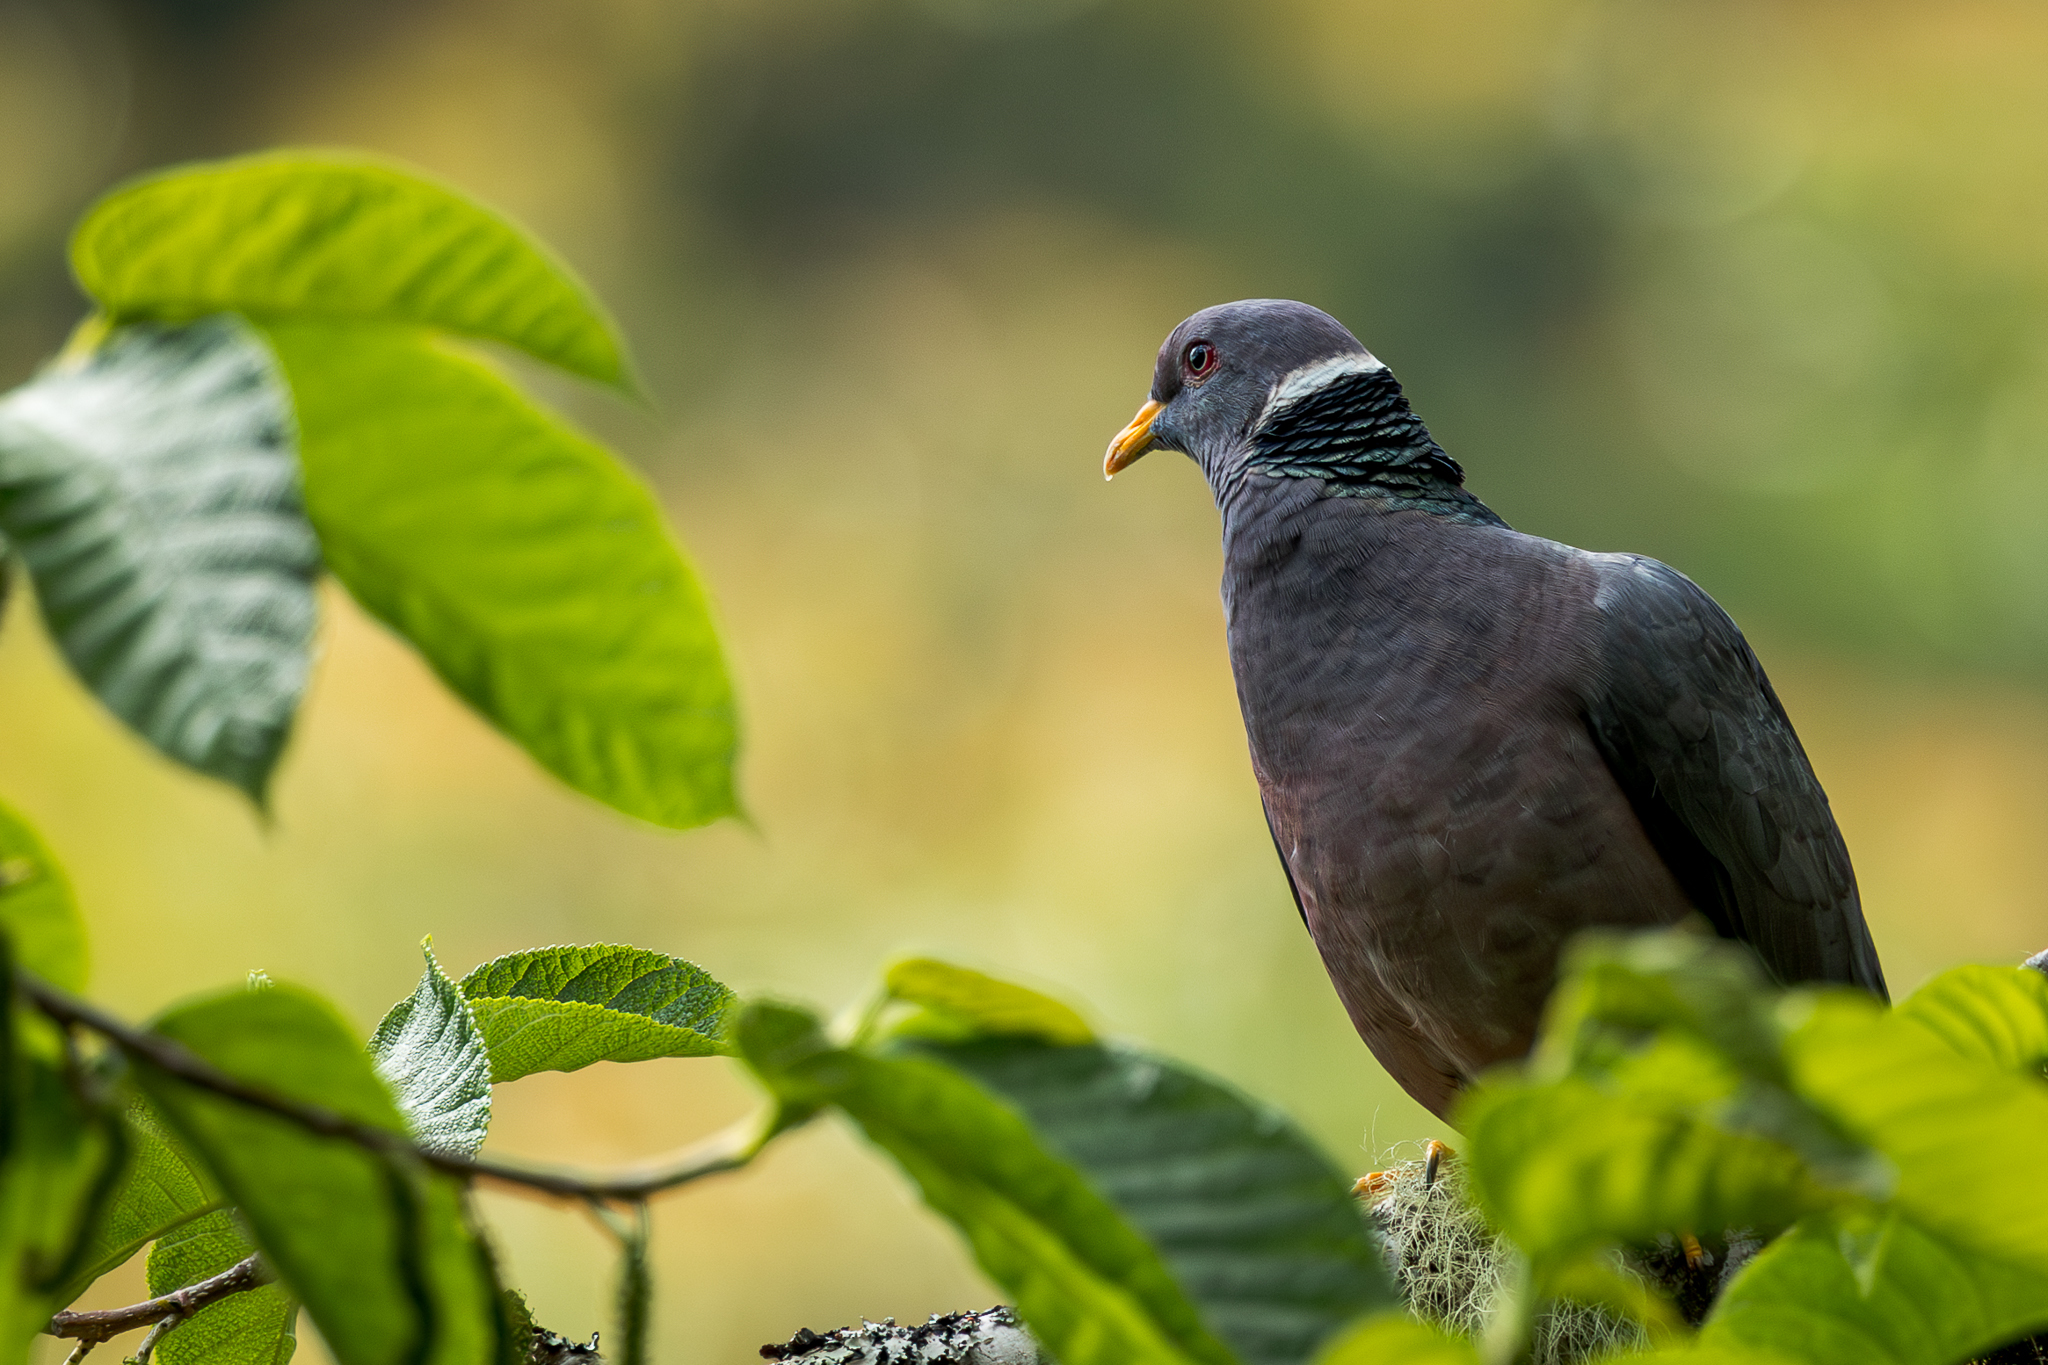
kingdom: Animalia
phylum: Chordata
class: Aves
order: Columbiformes
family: Columbidae
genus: Patagioenas
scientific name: Patagioenas fasciata
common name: Band-tailed pigeon
